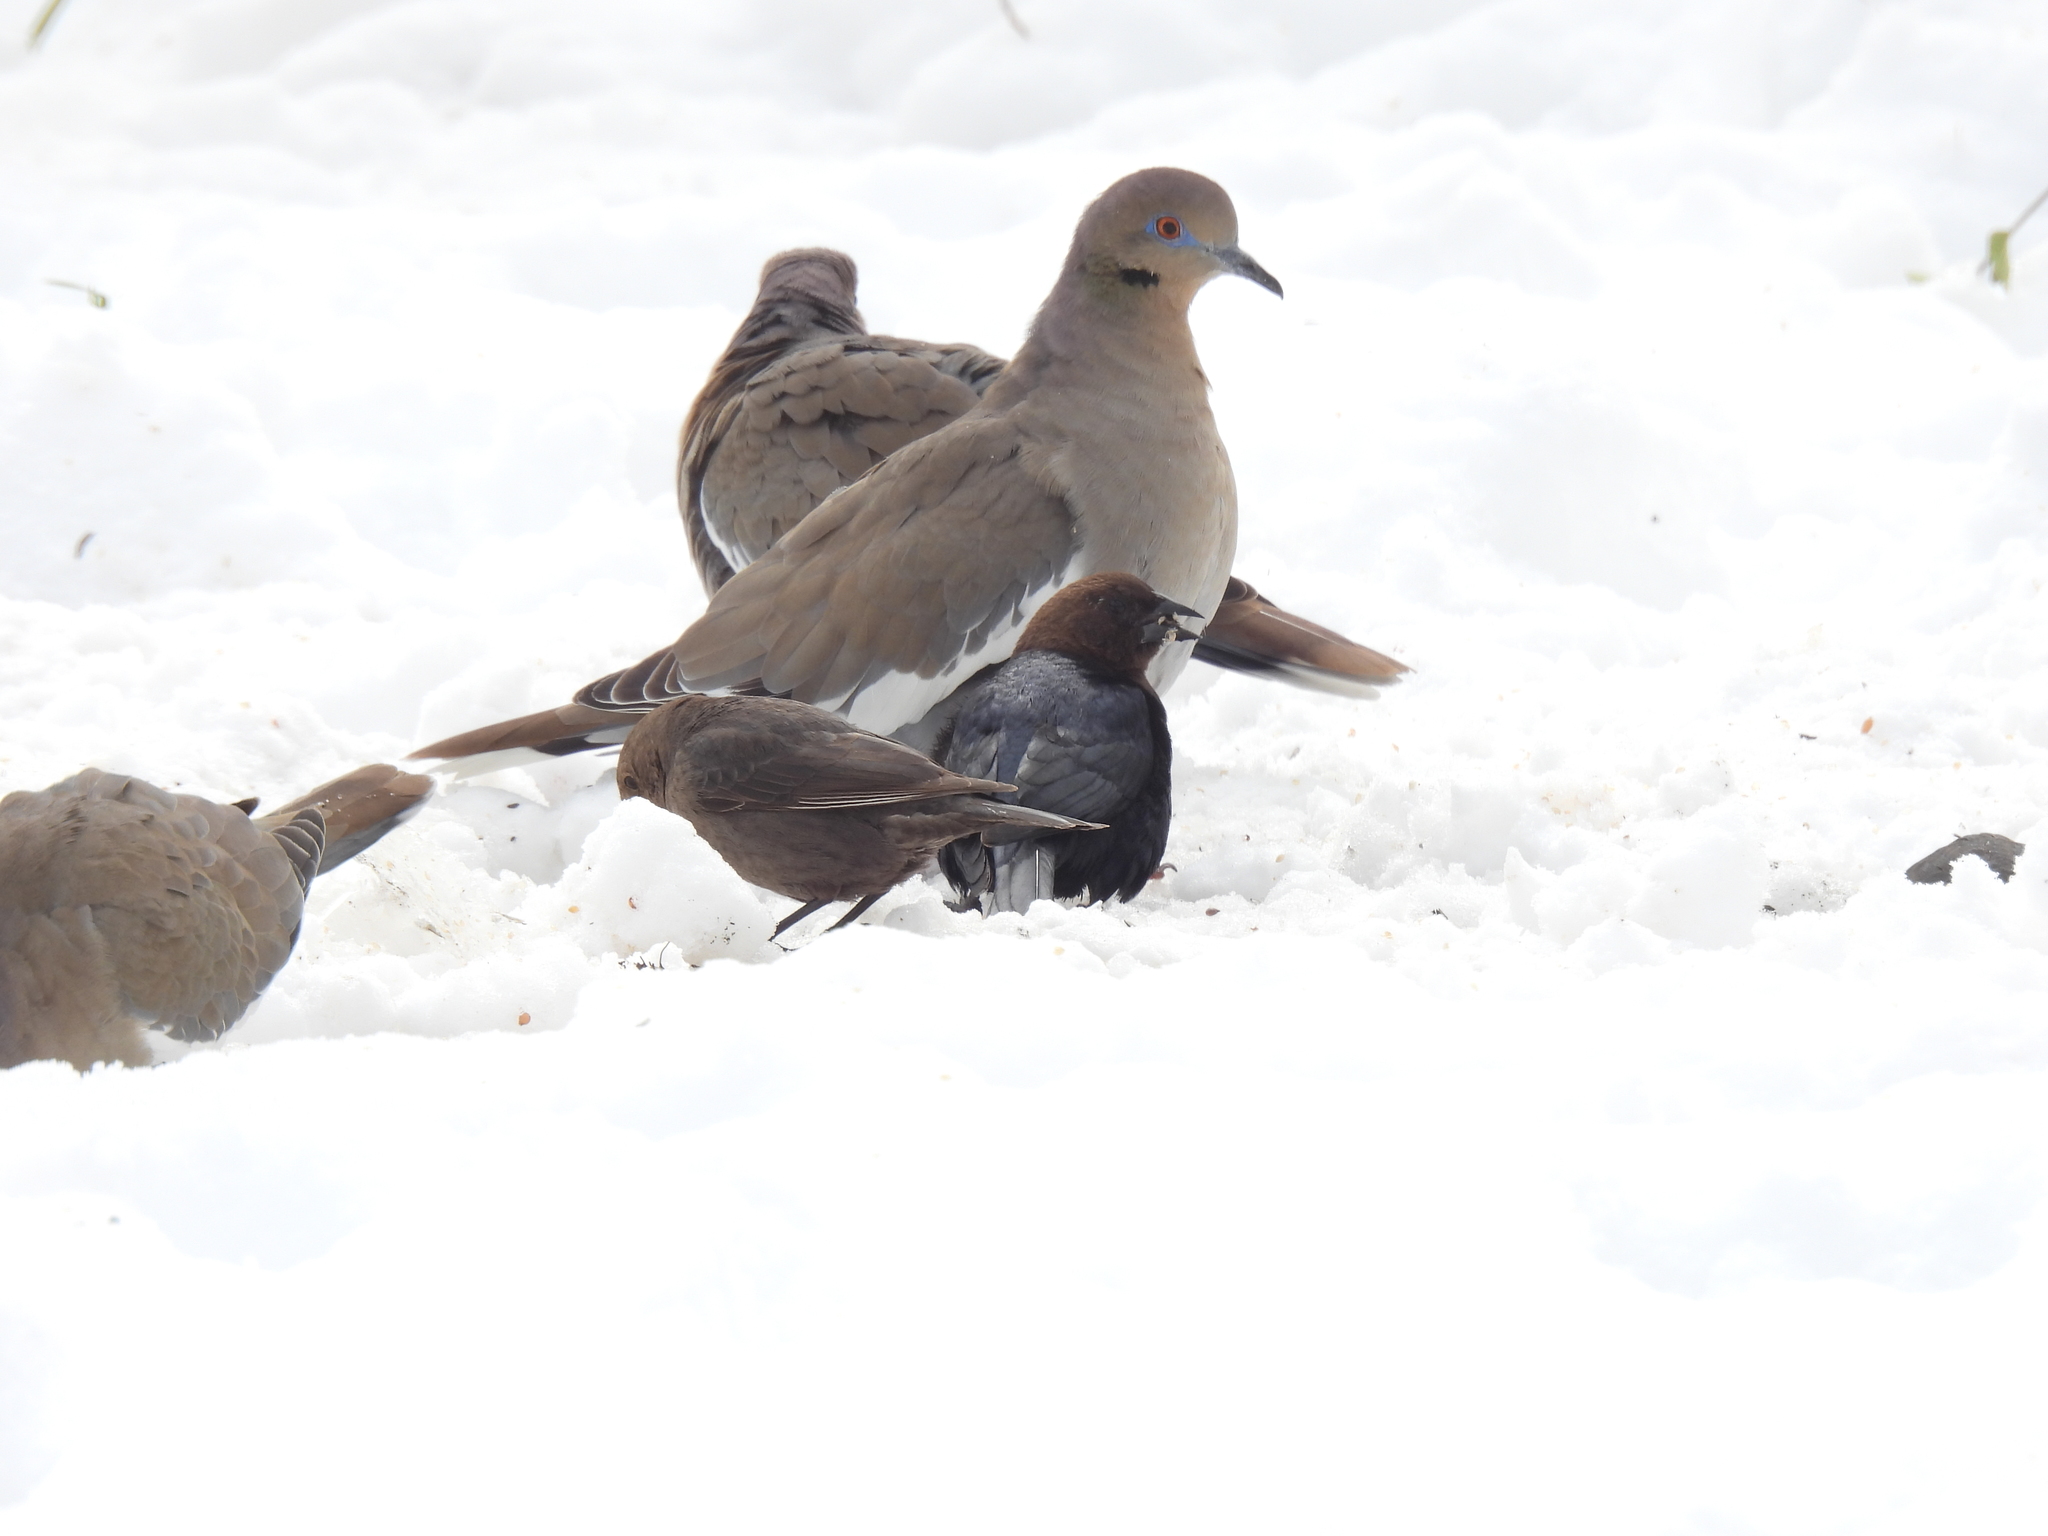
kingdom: Animalia
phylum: Chordata
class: Aves
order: Passeriformes
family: Icteridae
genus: Molothrus
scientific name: Molothrus ater
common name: Brown-headed cowbird
